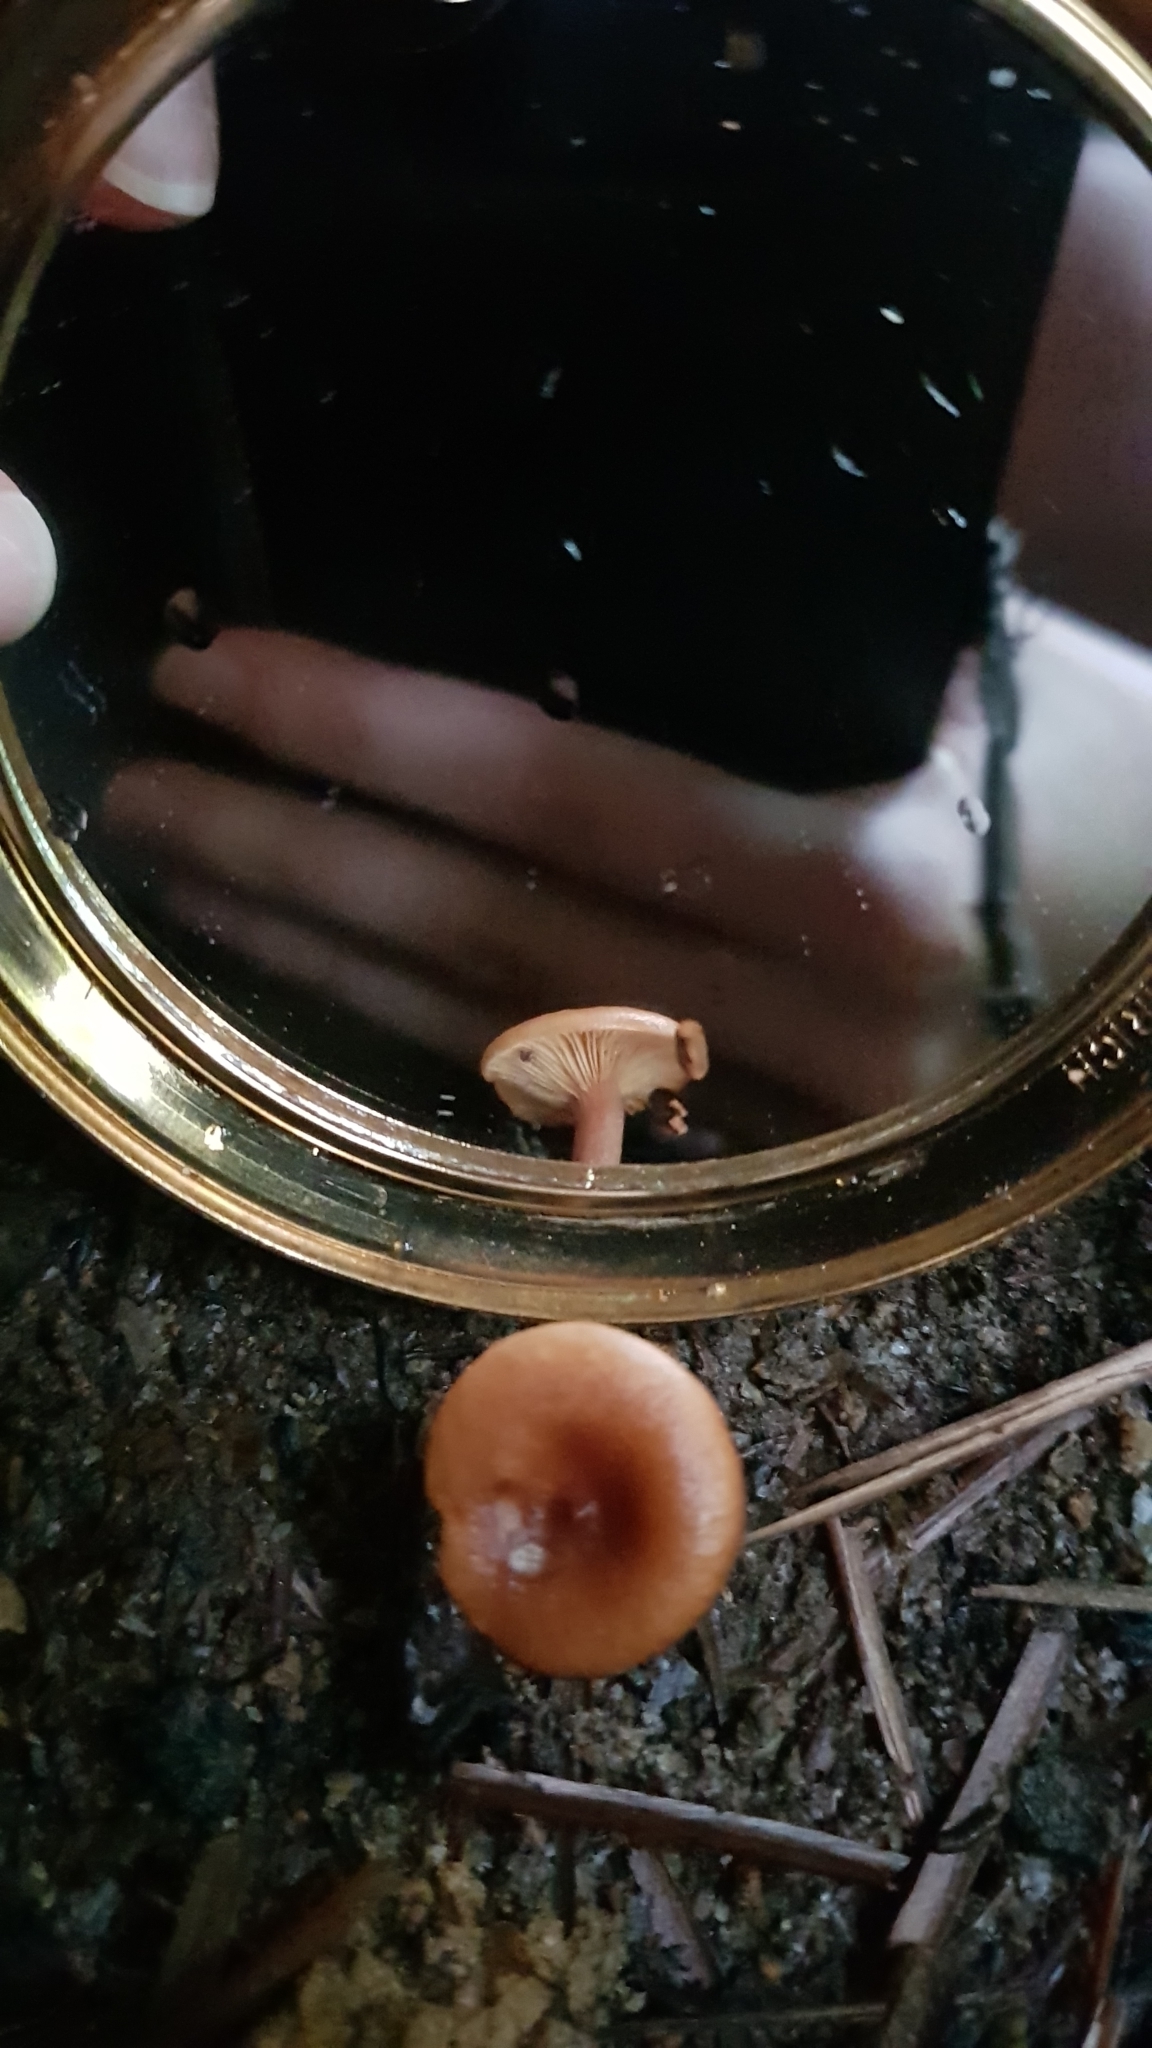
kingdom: Fungi
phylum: Basidiomycota
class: Agaricomycetes
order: Russulales
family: Russulaceae
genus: Lactarius
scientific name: Lactarius eucalypti
